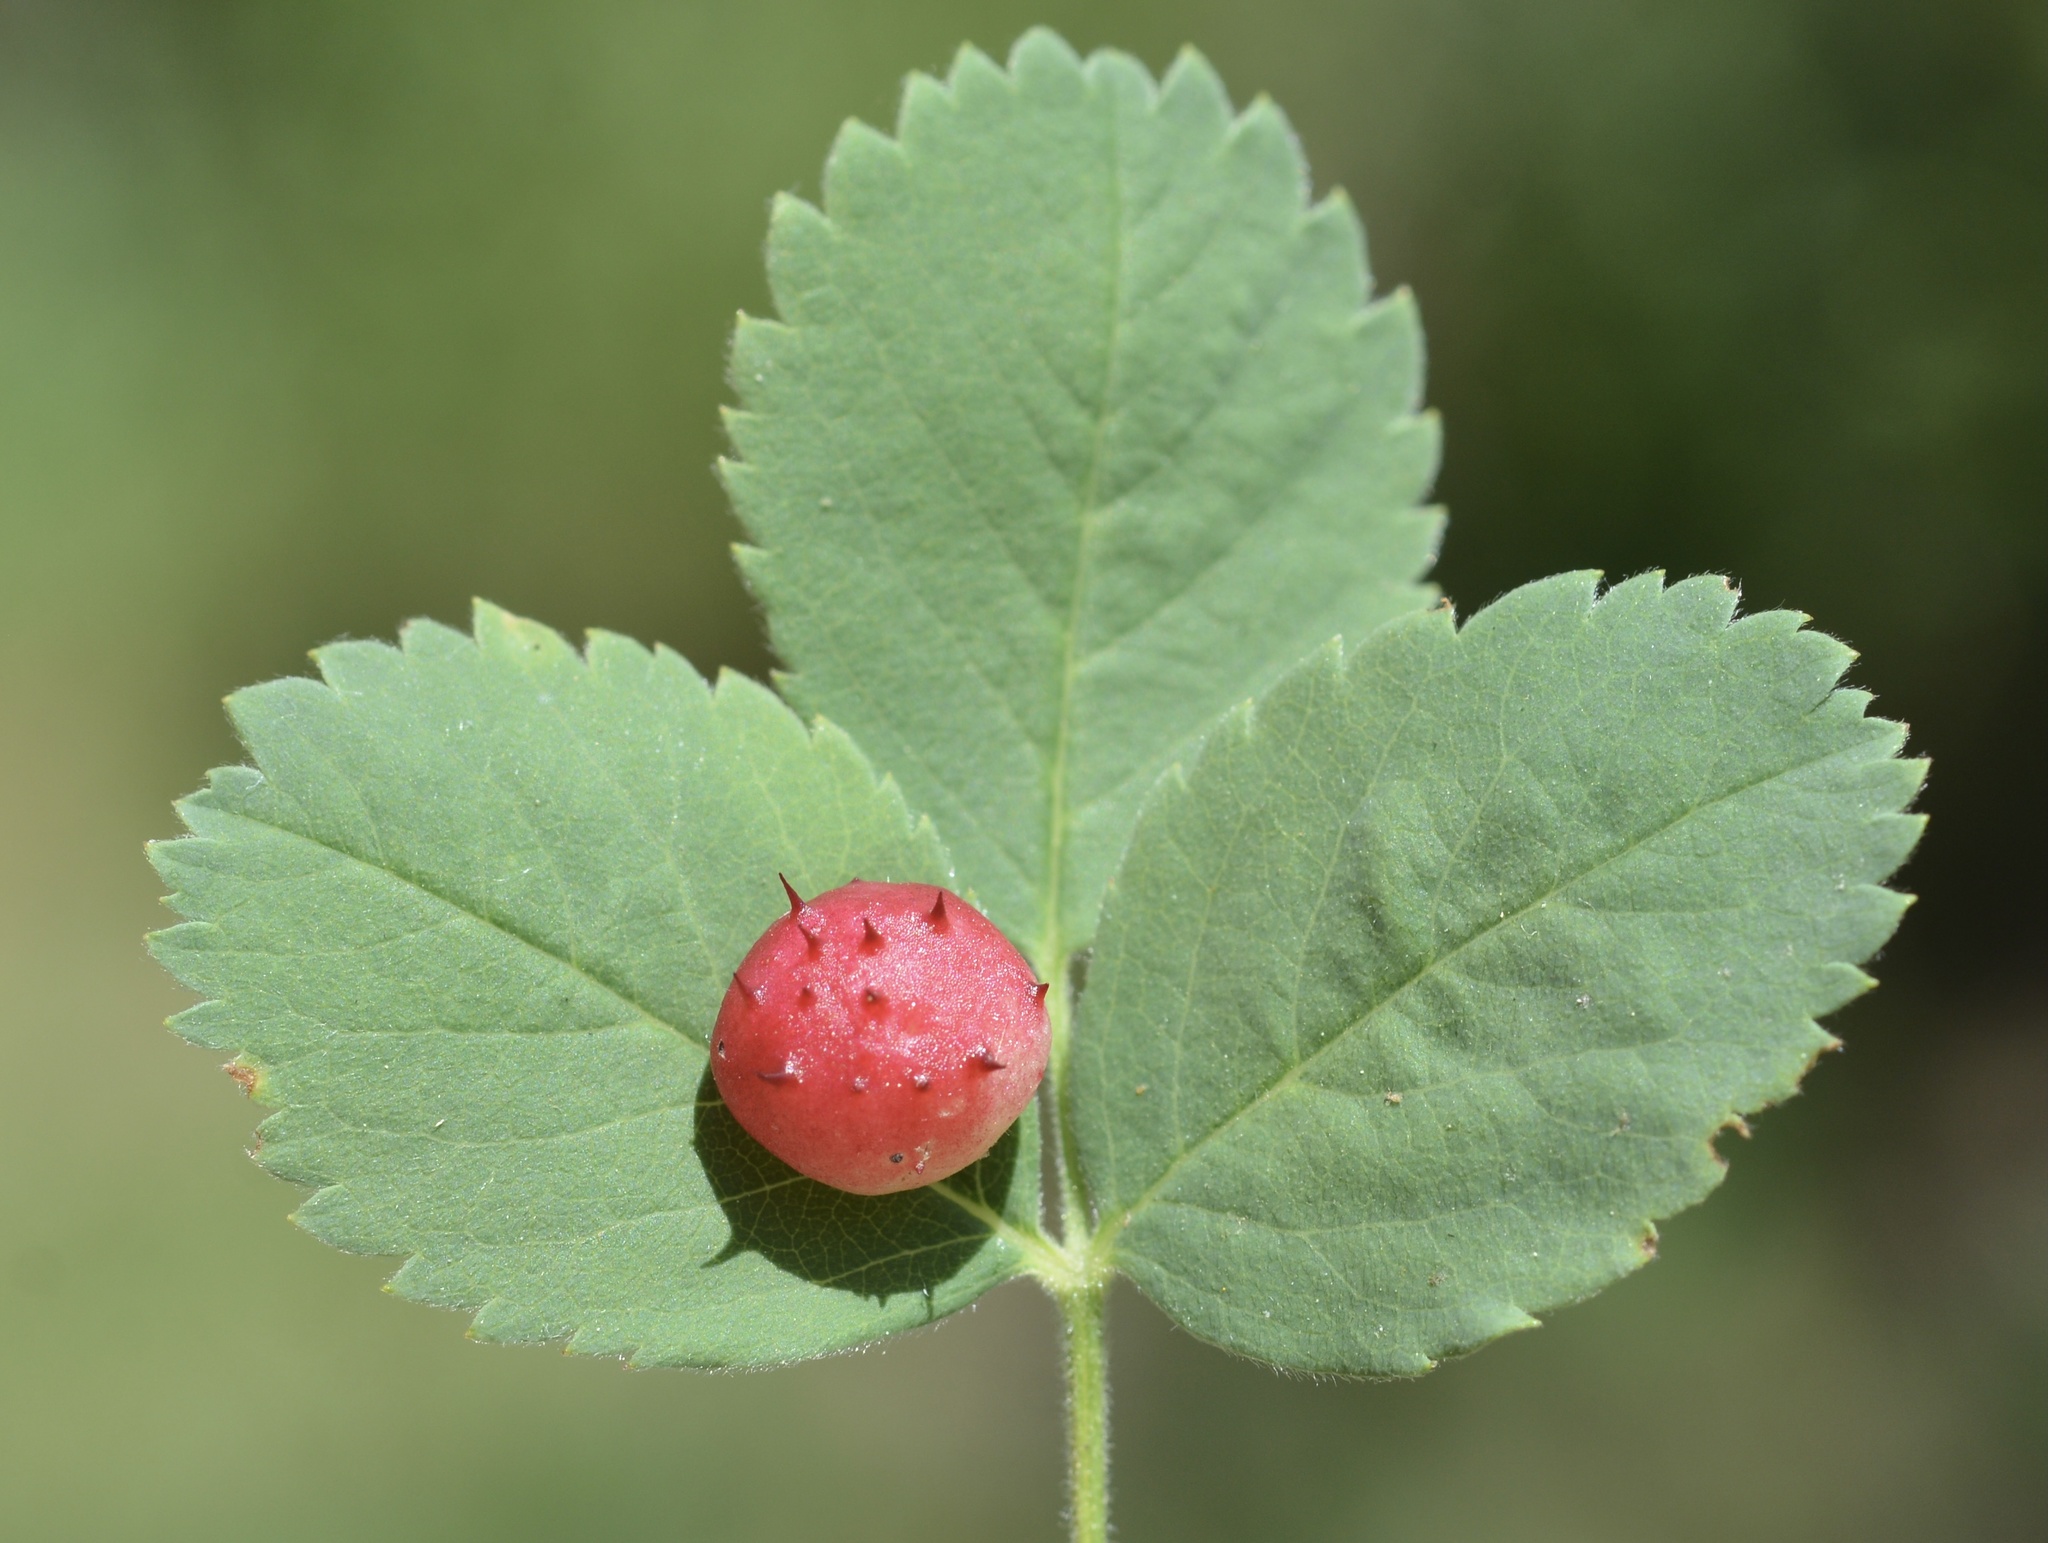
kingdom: Animalia
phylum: Arthropoda
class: Insecta
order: Hymenoptera
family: Cynipidae
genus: Diplolepis
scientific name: Diplolepis polita
